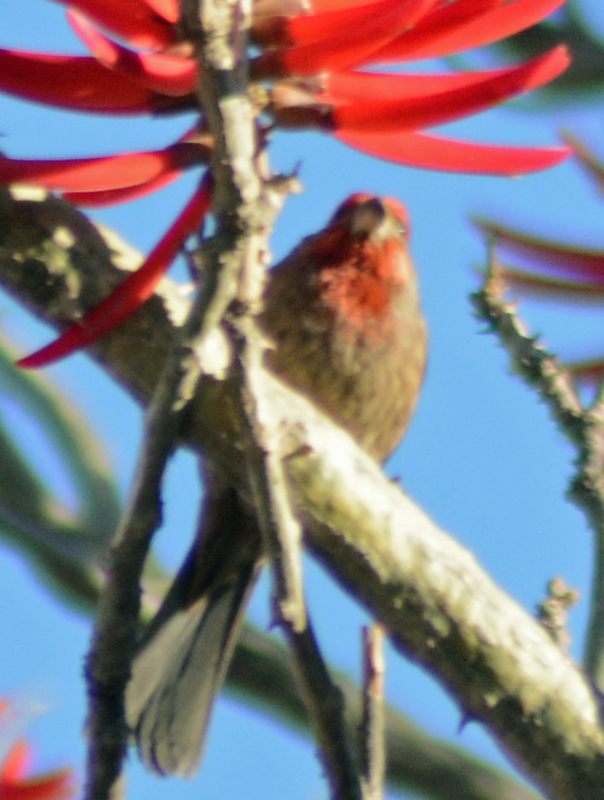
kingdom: Animalia
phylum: Chordata
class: Aves
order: Passeriformes
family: Fringillidae
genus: Haemorhous
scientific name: Haemorhous mexicanus
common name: House finch
